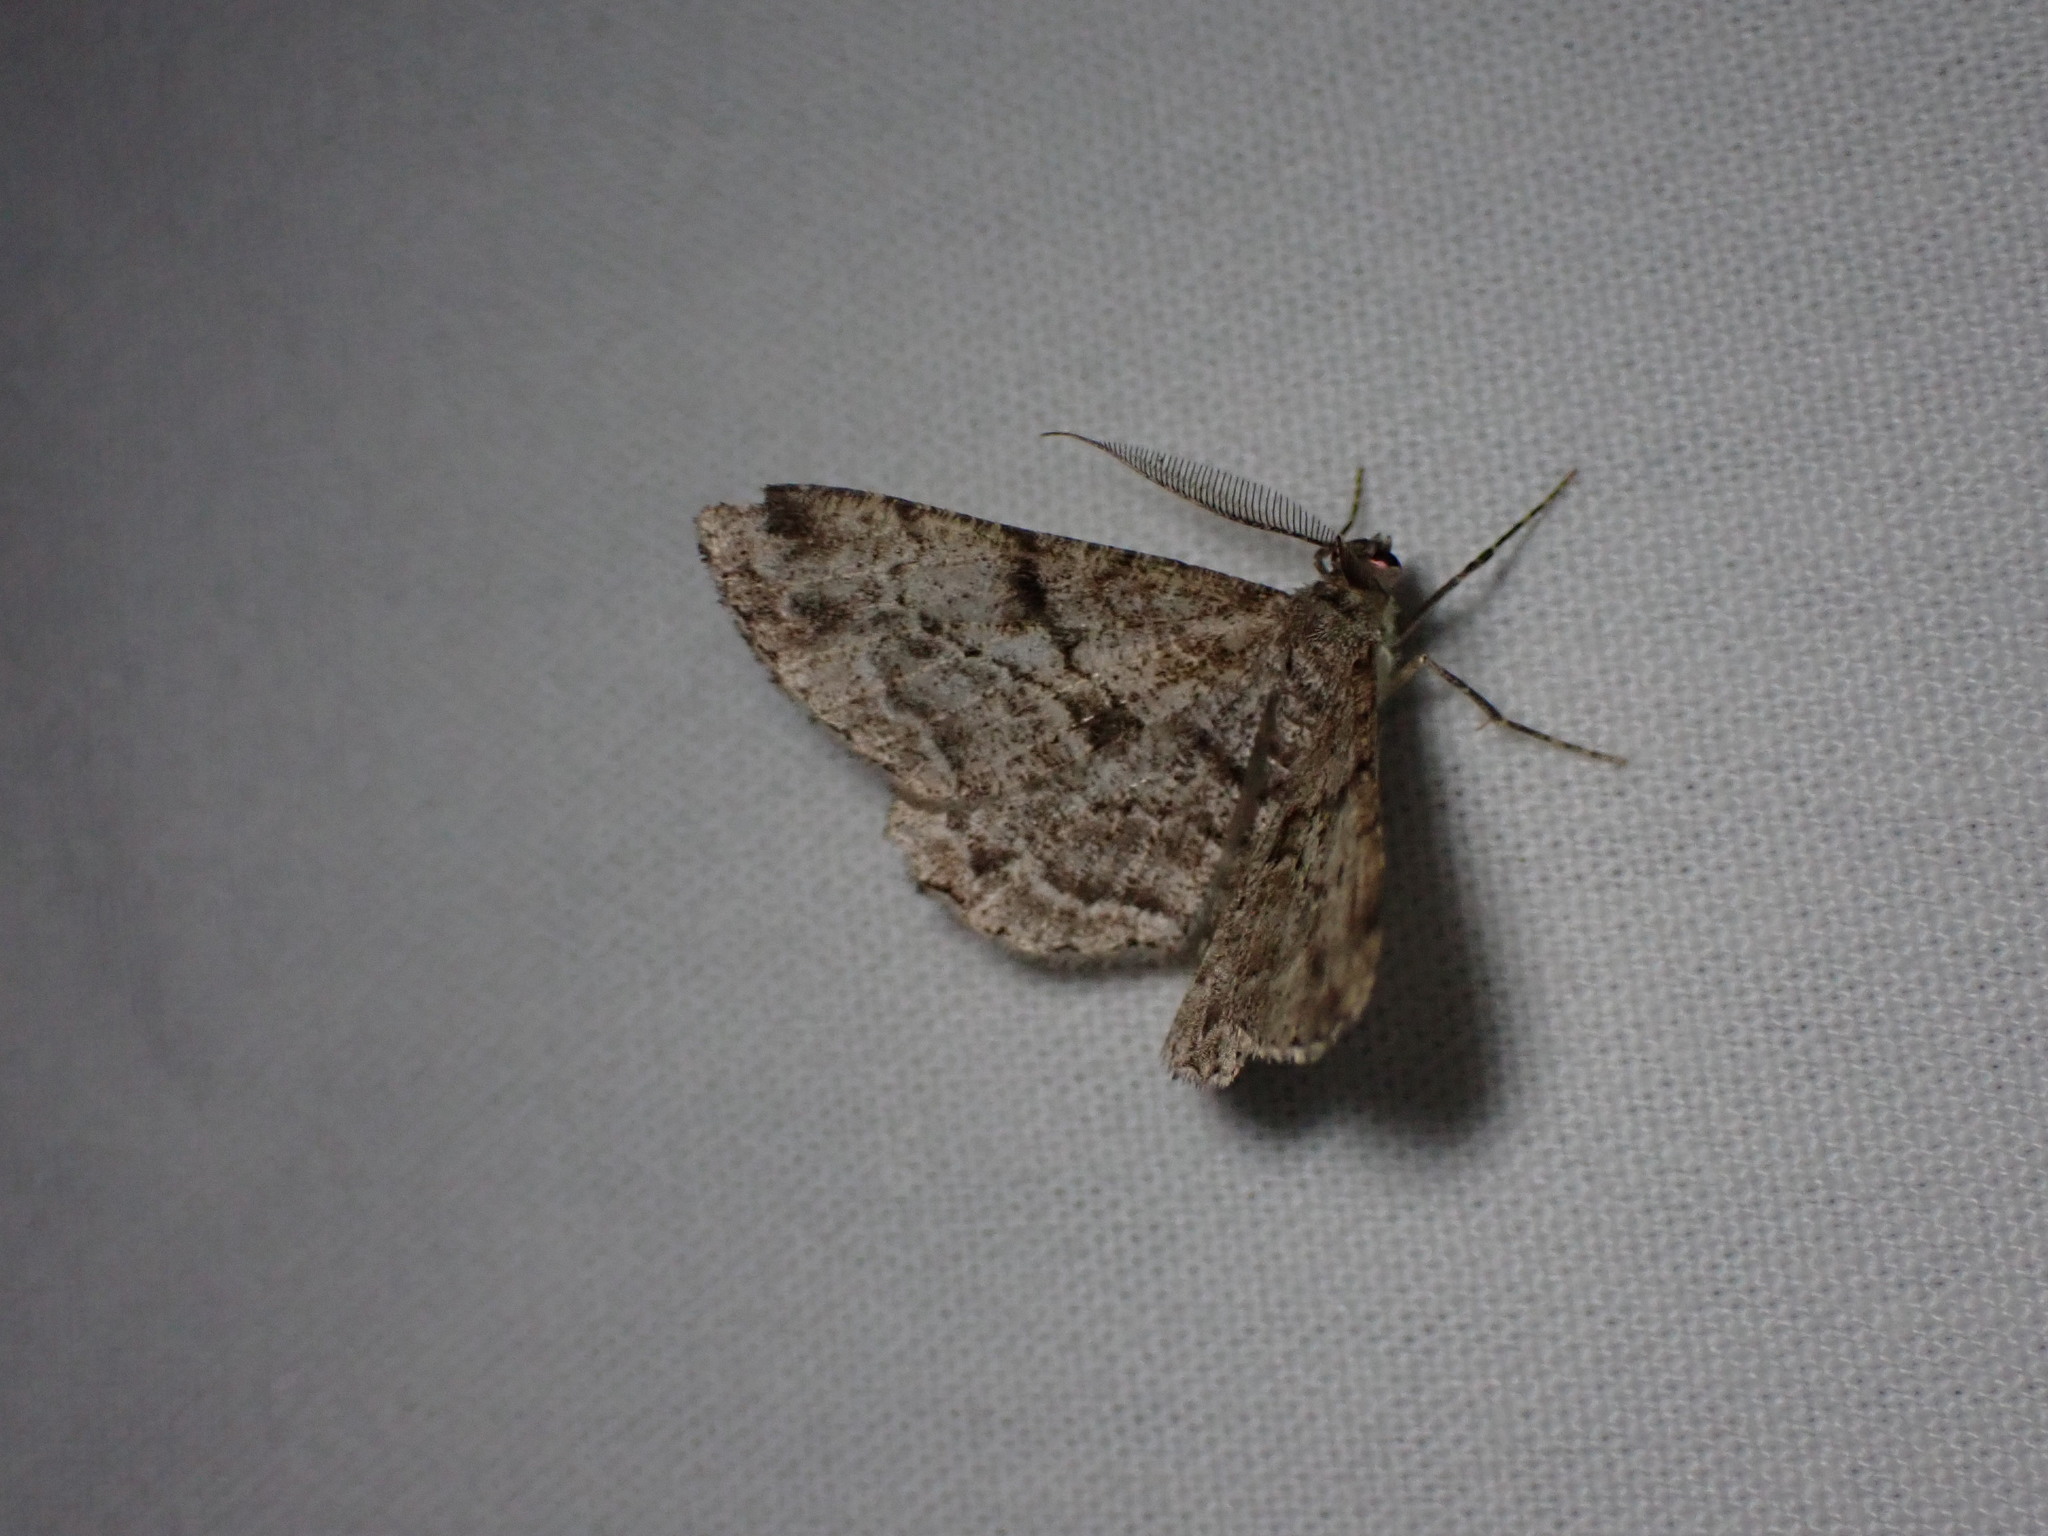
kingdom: Animalia
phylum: Arthropoda
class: Insecta
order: Lepidoptera
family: Geometridae
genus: Peribatodes
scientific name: Peribatodes rhomboidaria
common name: Willow beauty
